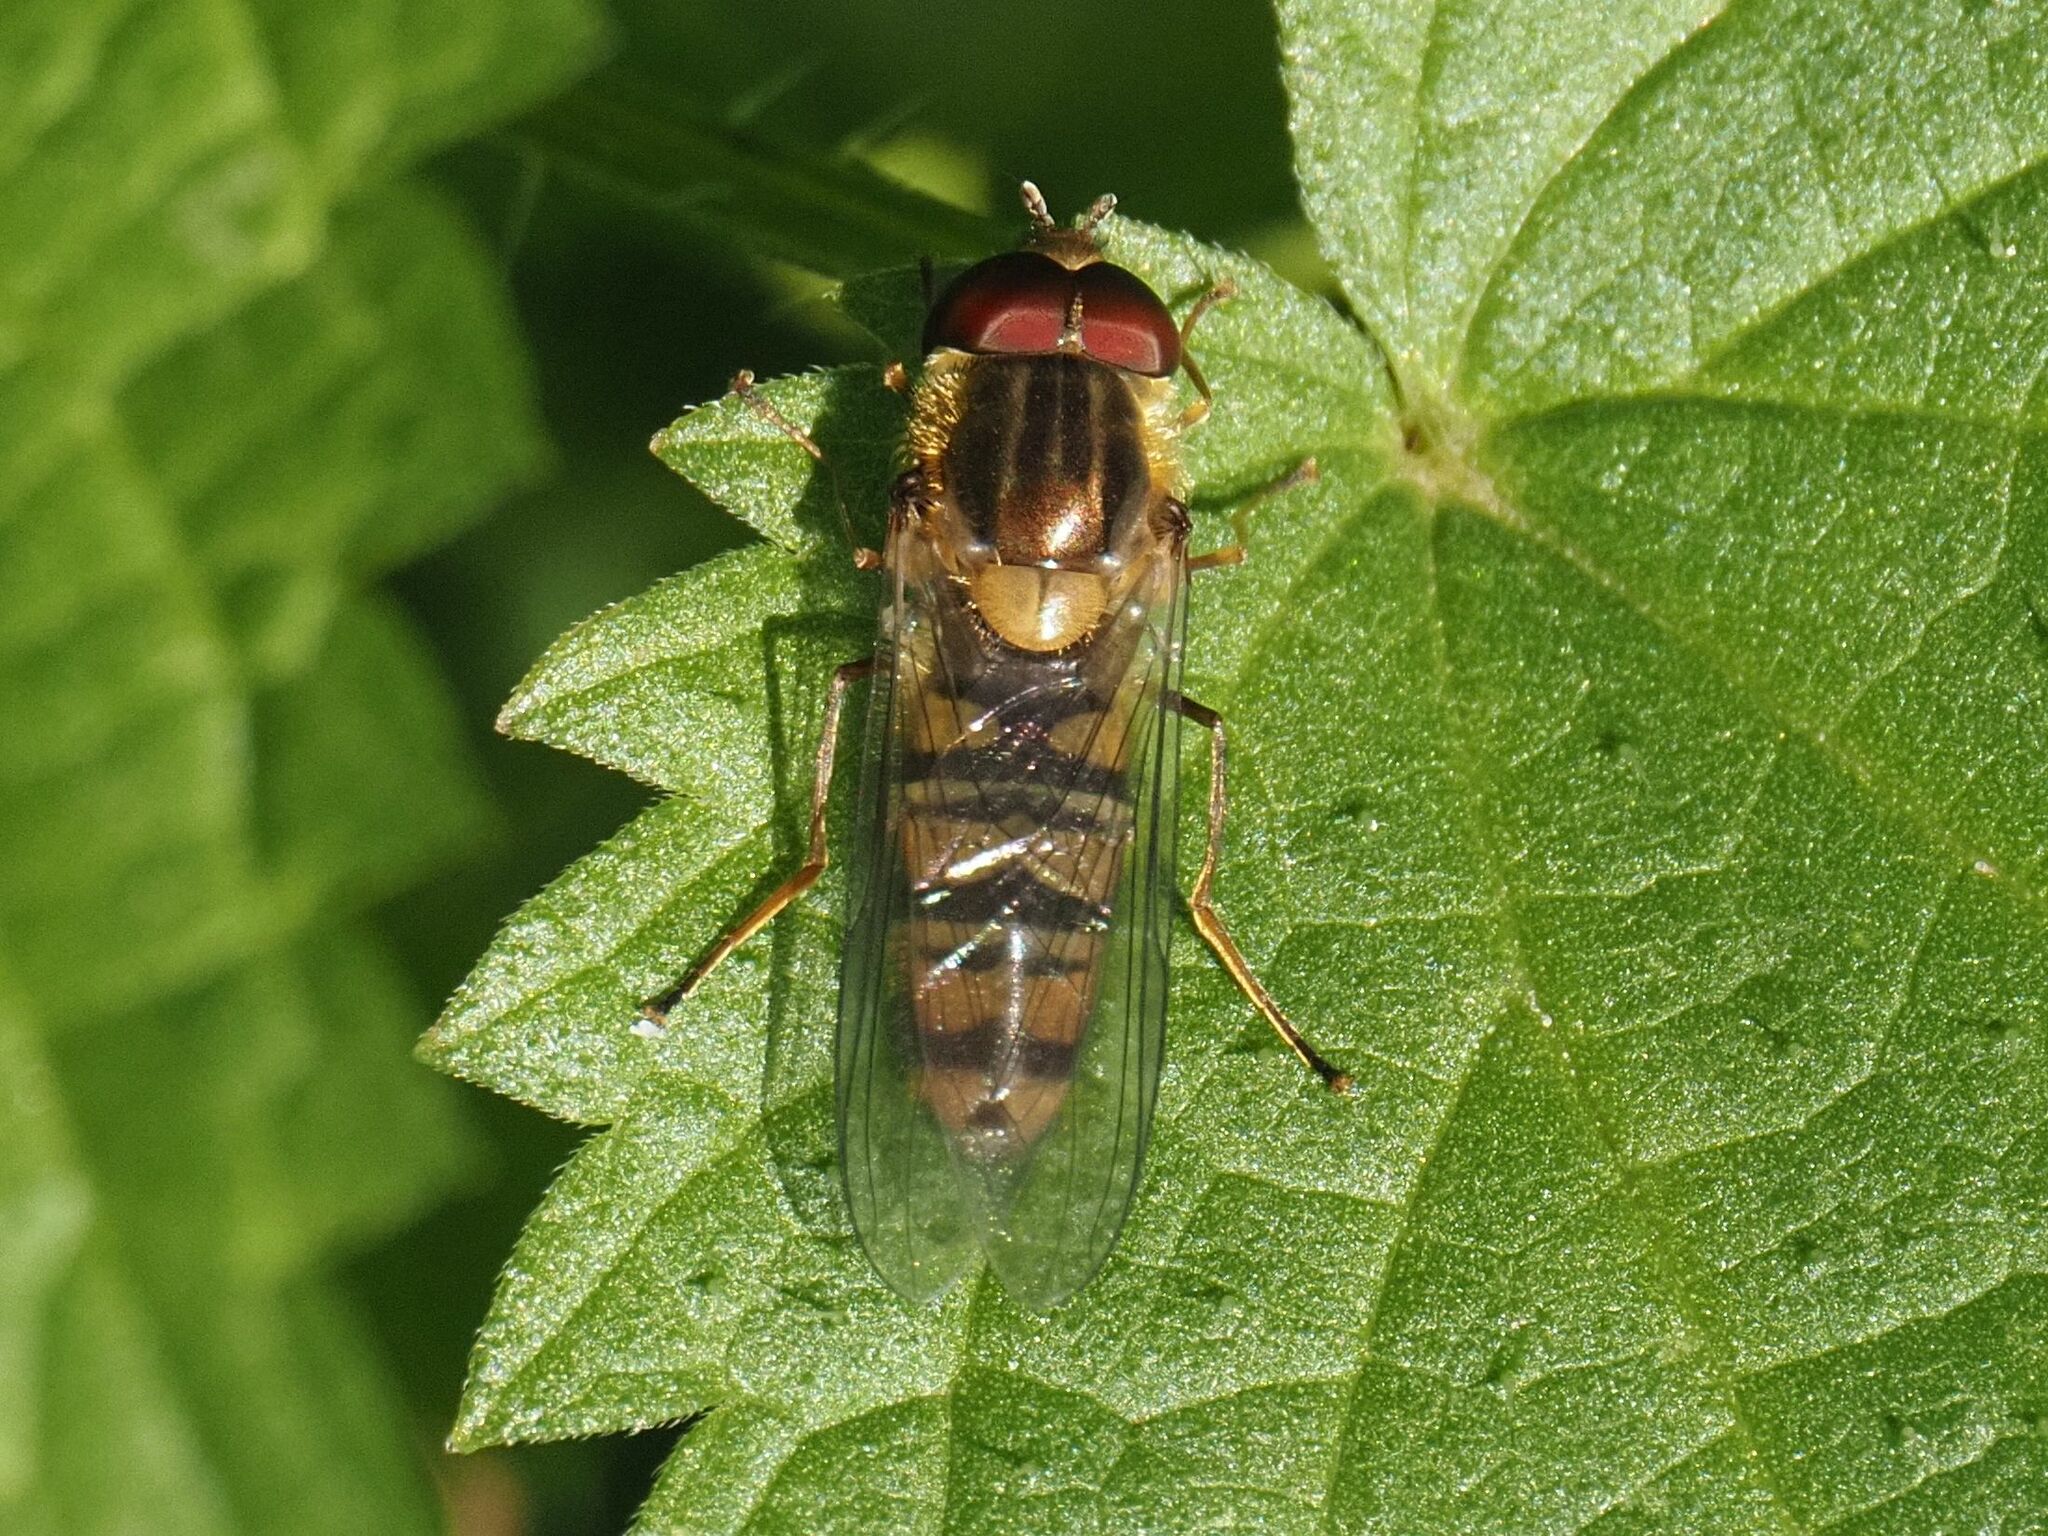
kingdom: Animalia
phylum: Arthropoda
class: Insecta
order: Diptera
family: Syrphidae
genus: Episyrphus
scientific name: Episyrphus balteatus
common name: Marmalade hoverfly
